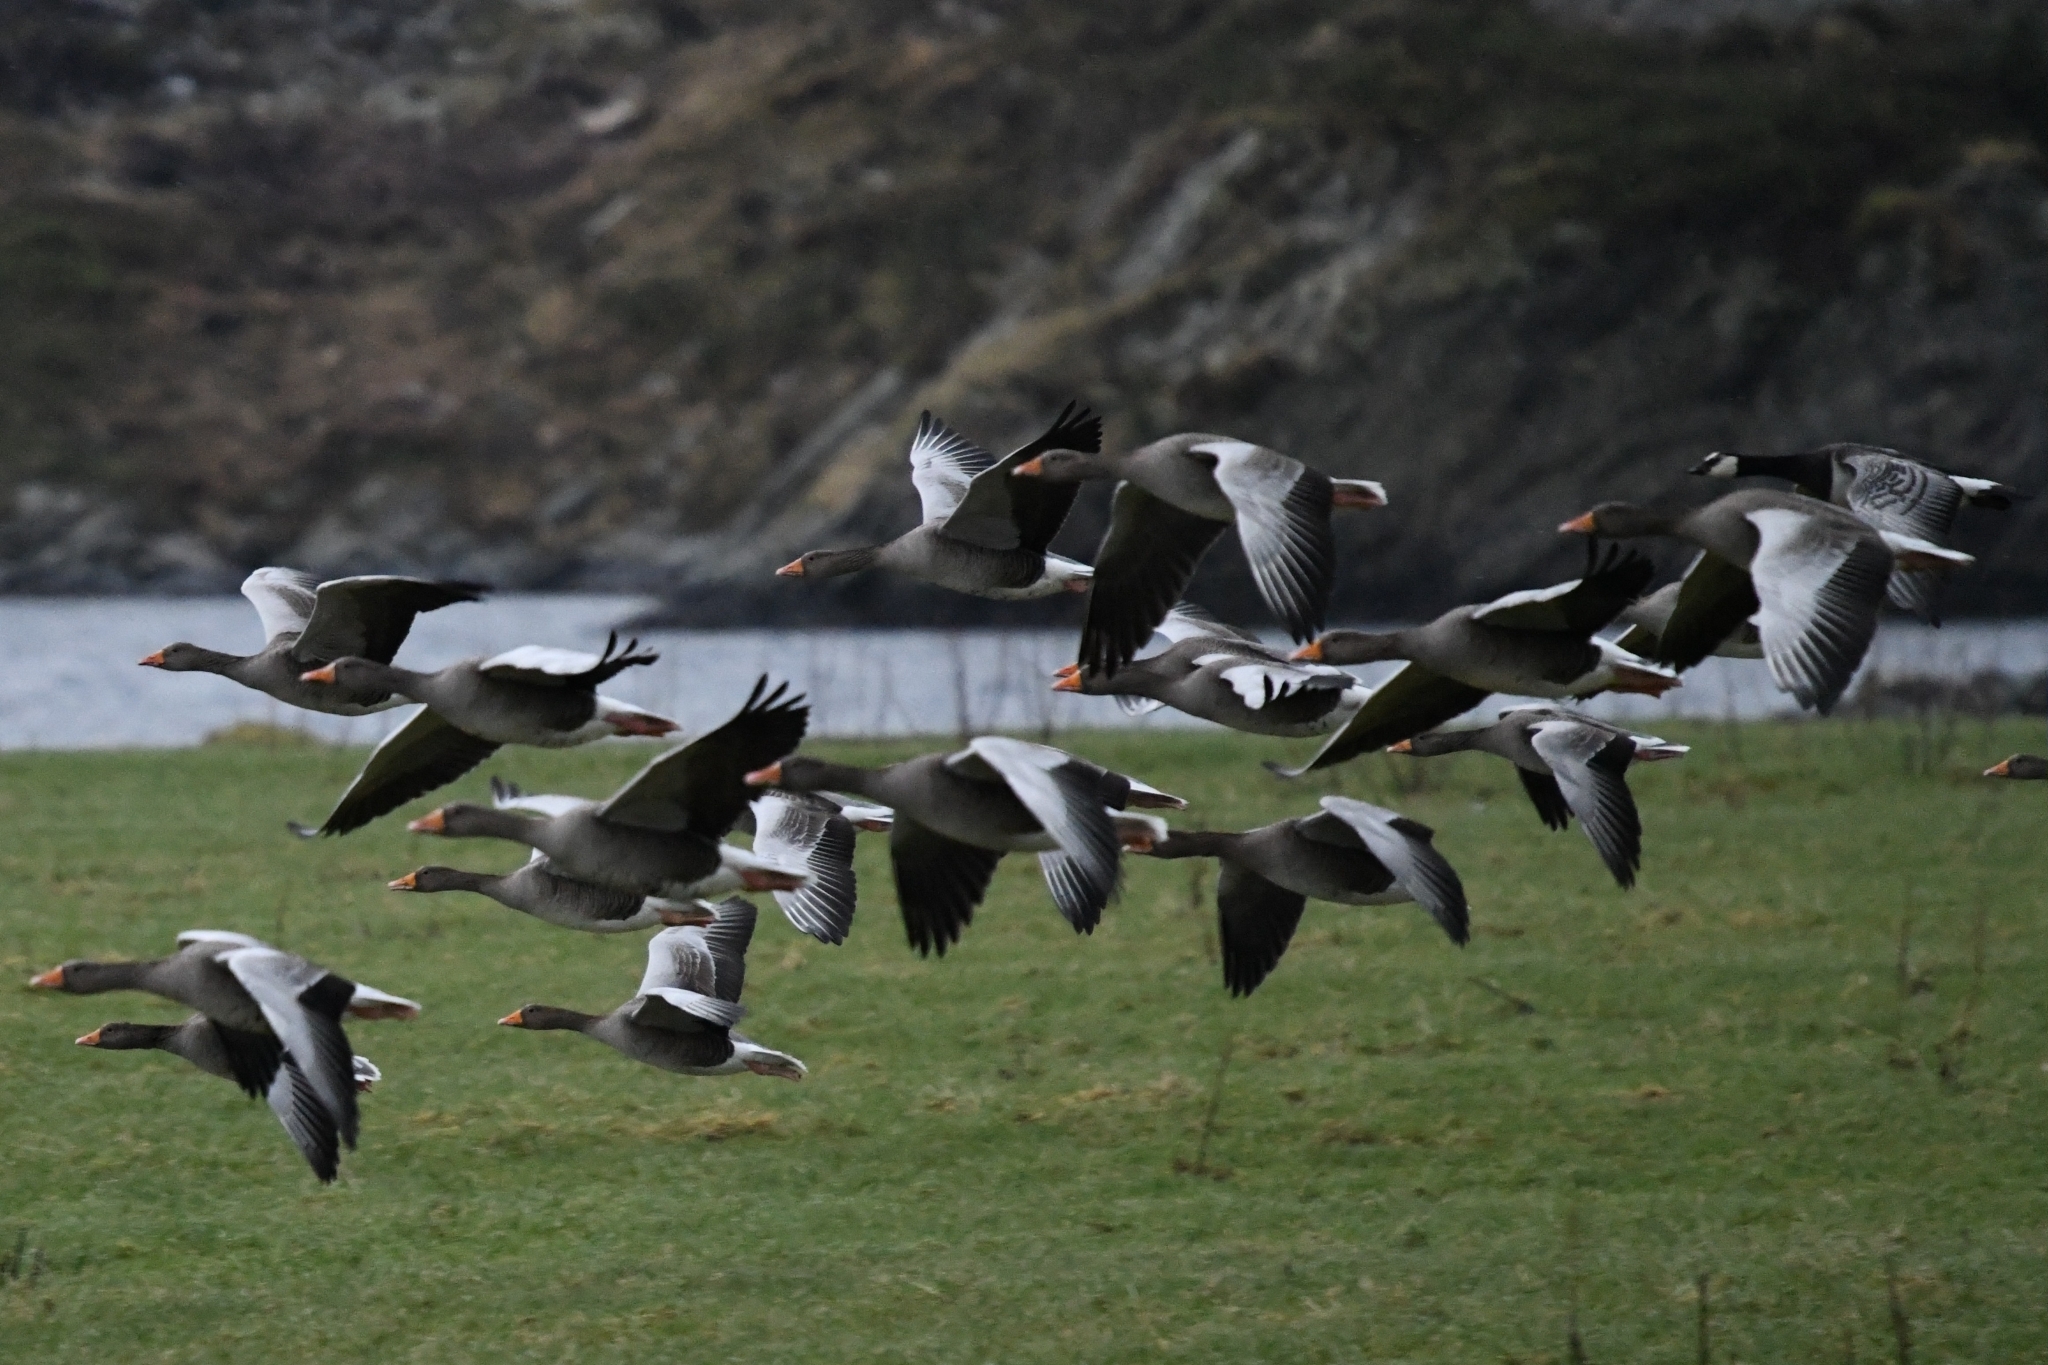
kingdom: Animalia
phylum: Chordata
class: Aves
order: Anseriformes
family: Anatidae
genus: Anser
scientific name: Anser anser
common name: Greylag goose
